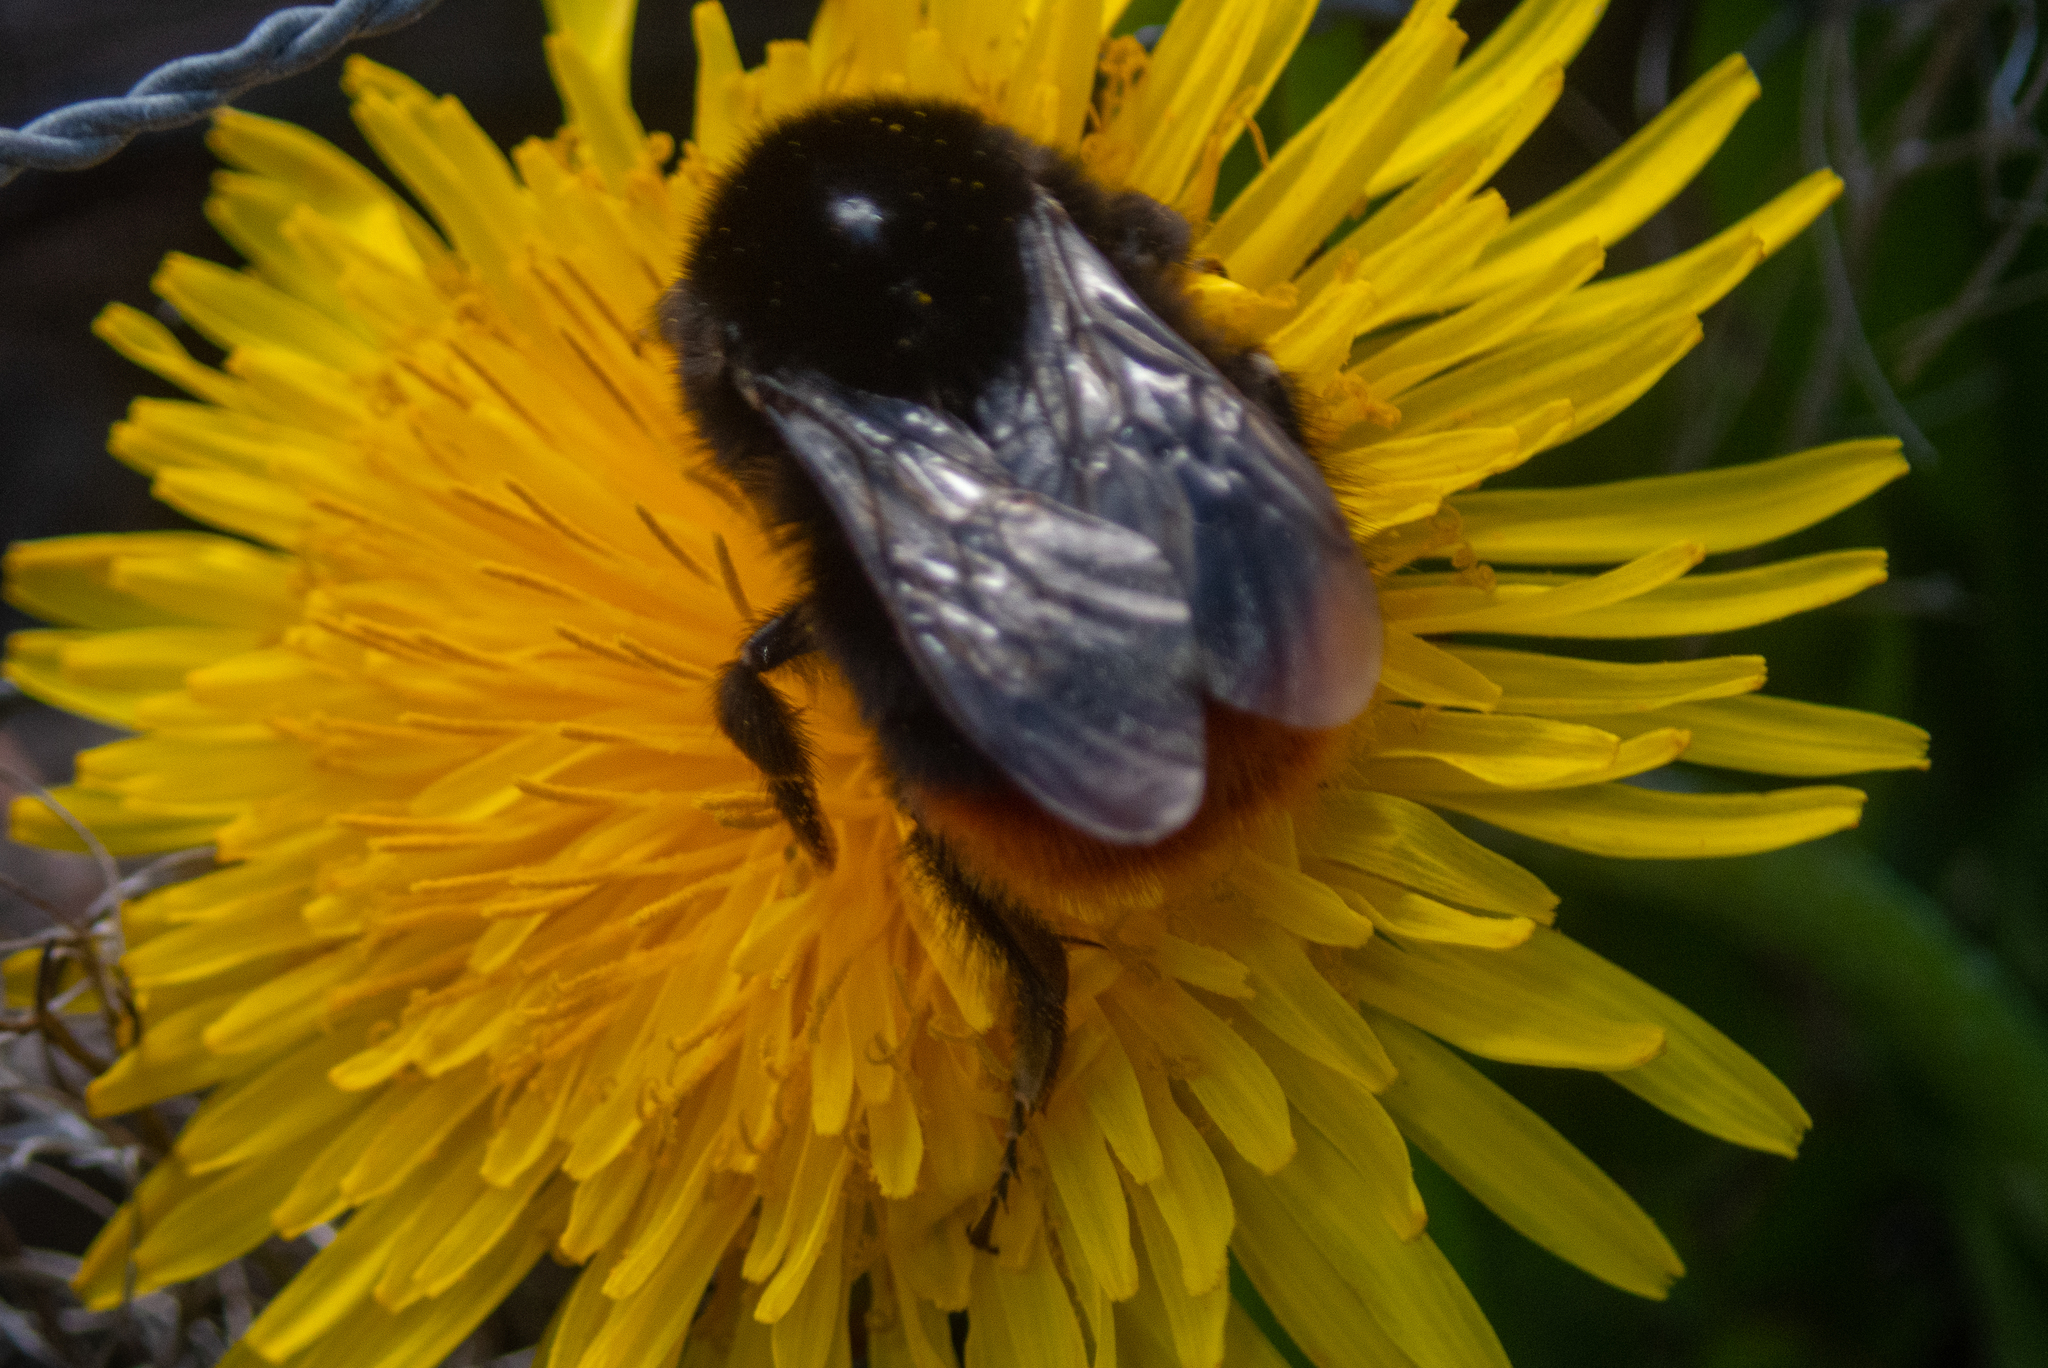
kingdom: Animalia
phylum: Arthropoda
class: Insecta
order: Hymenoptera
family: Apidae
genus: Bombus
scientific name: Bombus lapidarius
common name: Large red-tailed humble-bee
